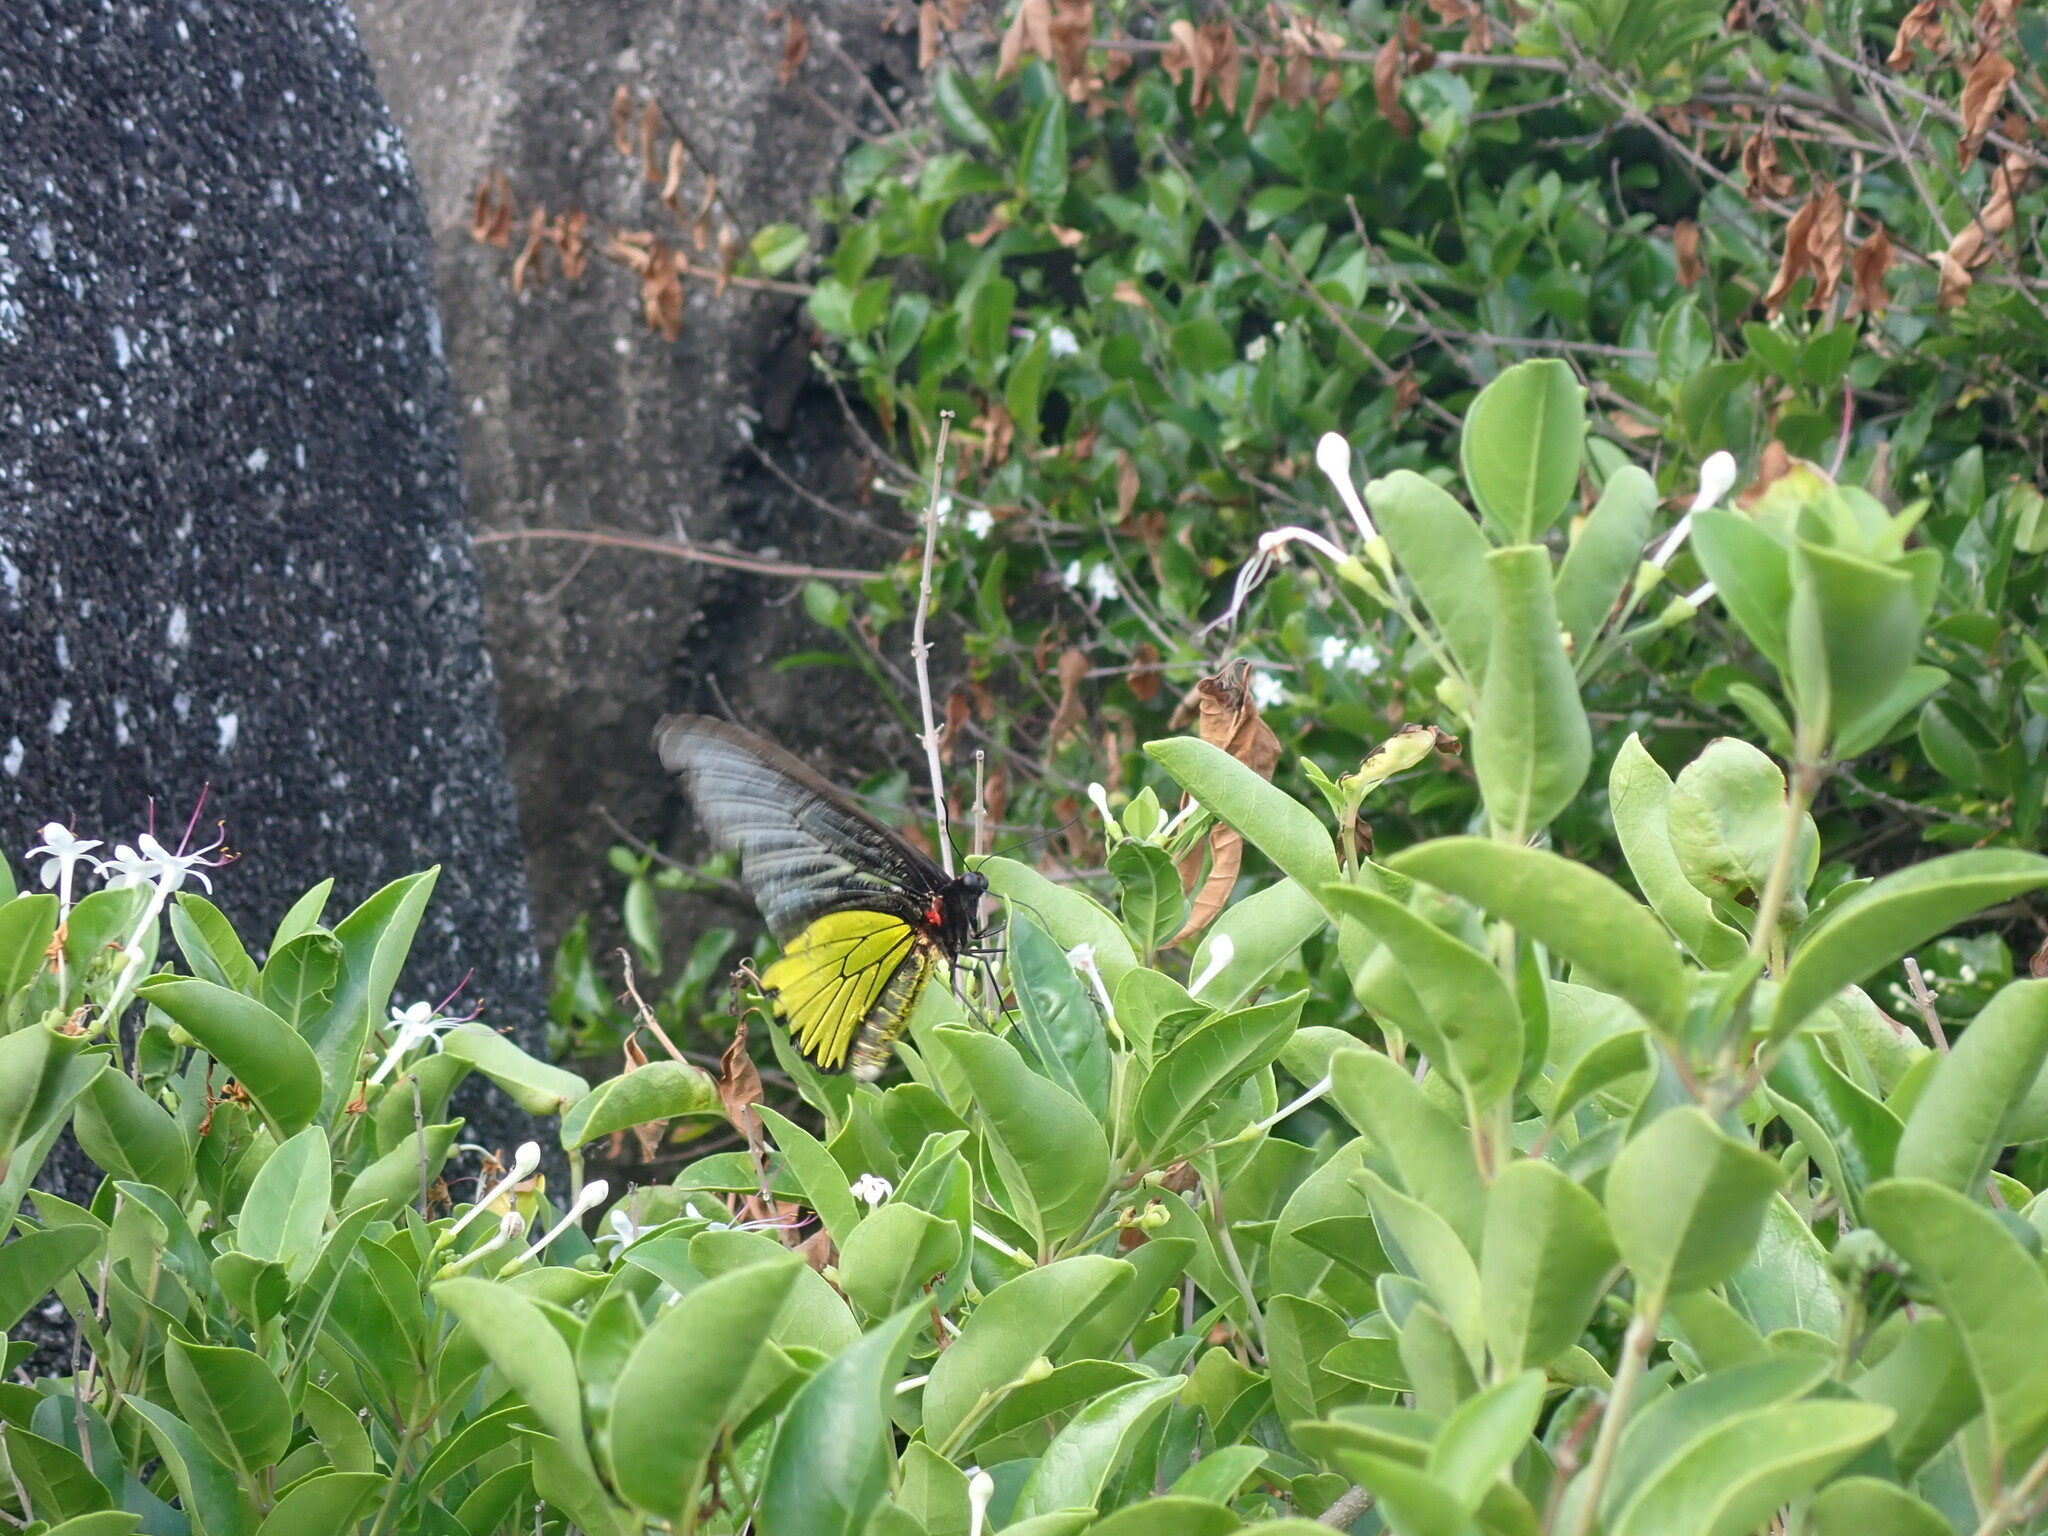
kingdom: Animalia
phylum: Arthropoda
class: Insecta
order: Lepidoptera
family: Papilionidae
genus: Troides
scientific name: Troides magellanus
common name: Magellan birdwing
